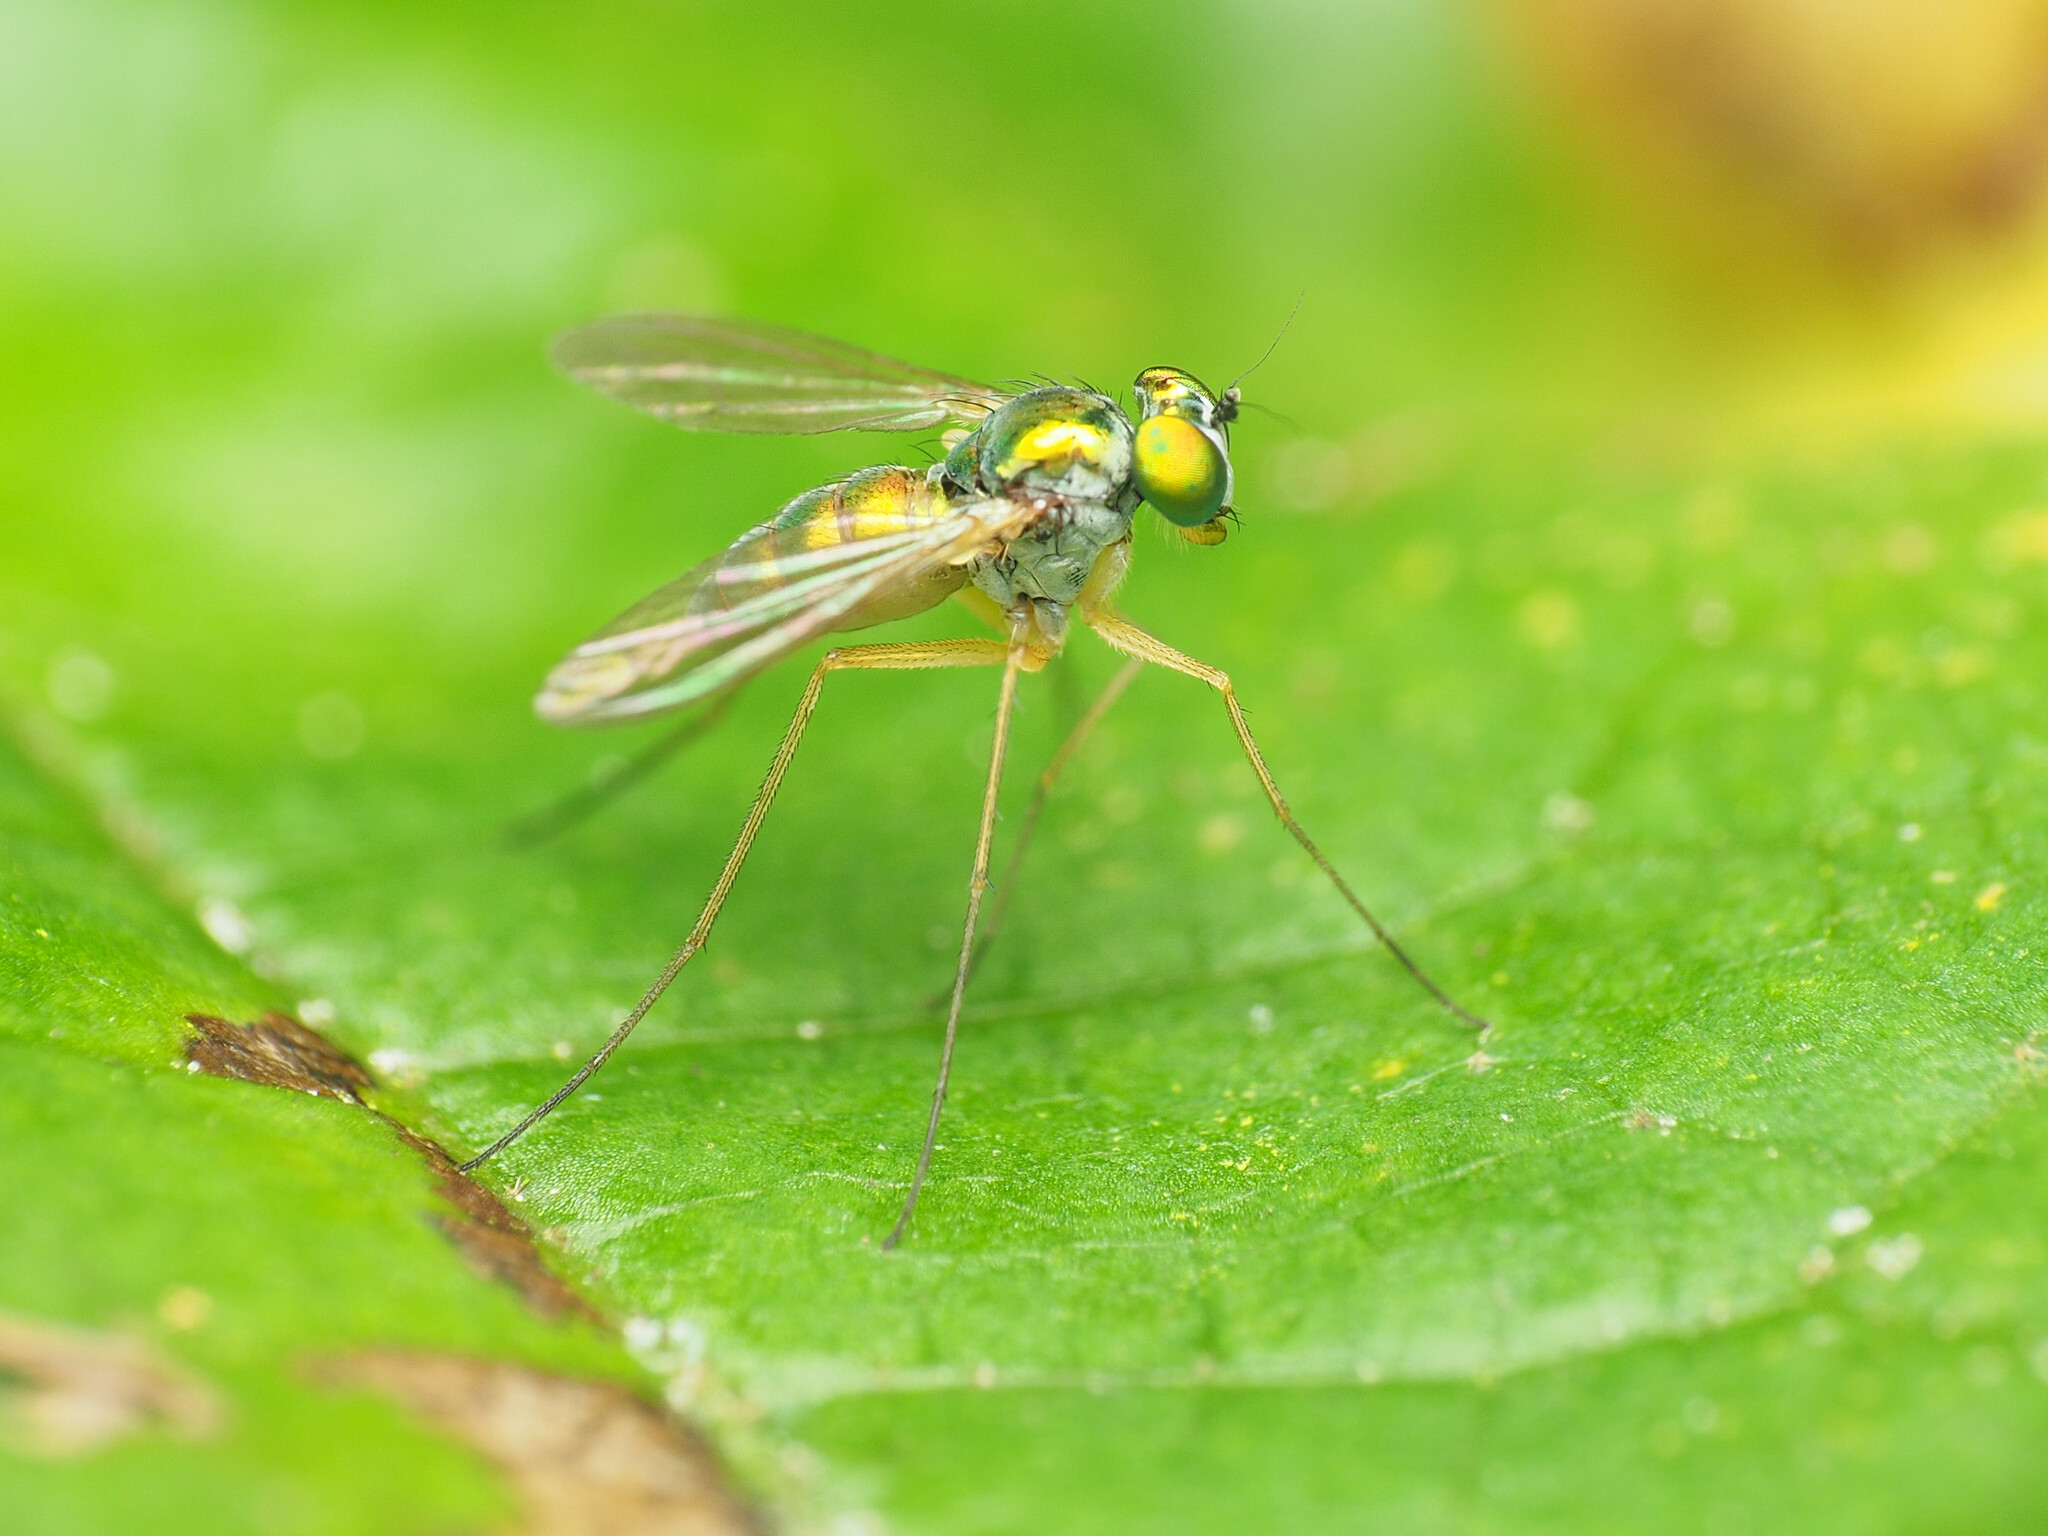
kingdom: Animalia
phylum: Arthropoda
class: Insecta
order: Diptera
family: Dolichopodidae
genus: Amblypsilopus
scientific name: Amblypsilopus scintillans
